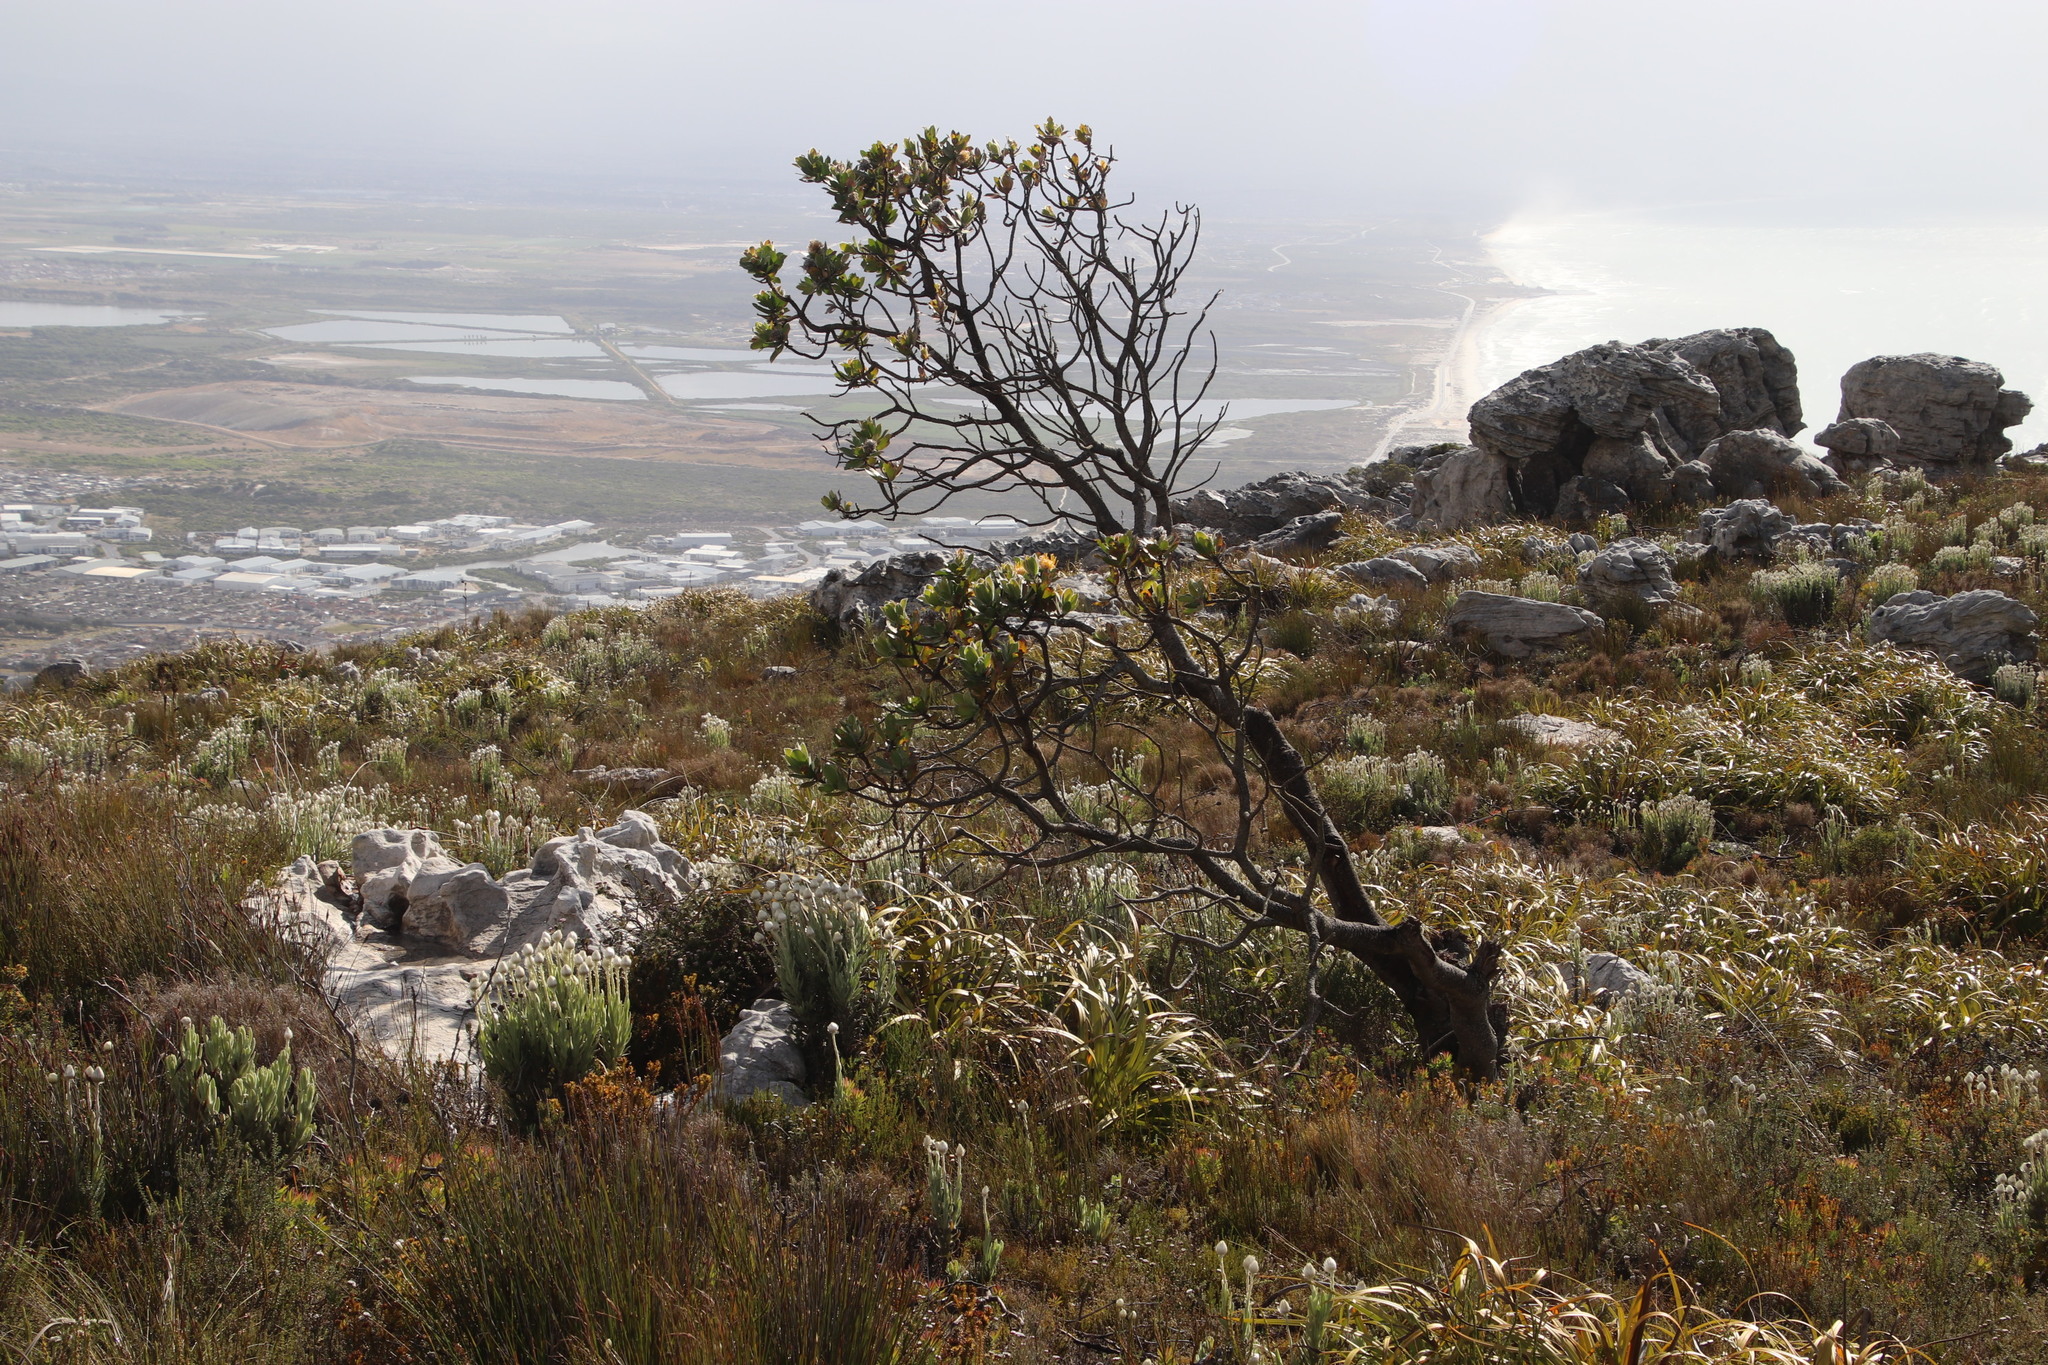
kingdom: Plantae
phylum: Tracheophyta
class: Magnoliopsida
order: Proteales
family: Proteaceae
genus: Leucospermum
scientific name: Leucospermum conocarpodendron
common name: Tree pincushion
